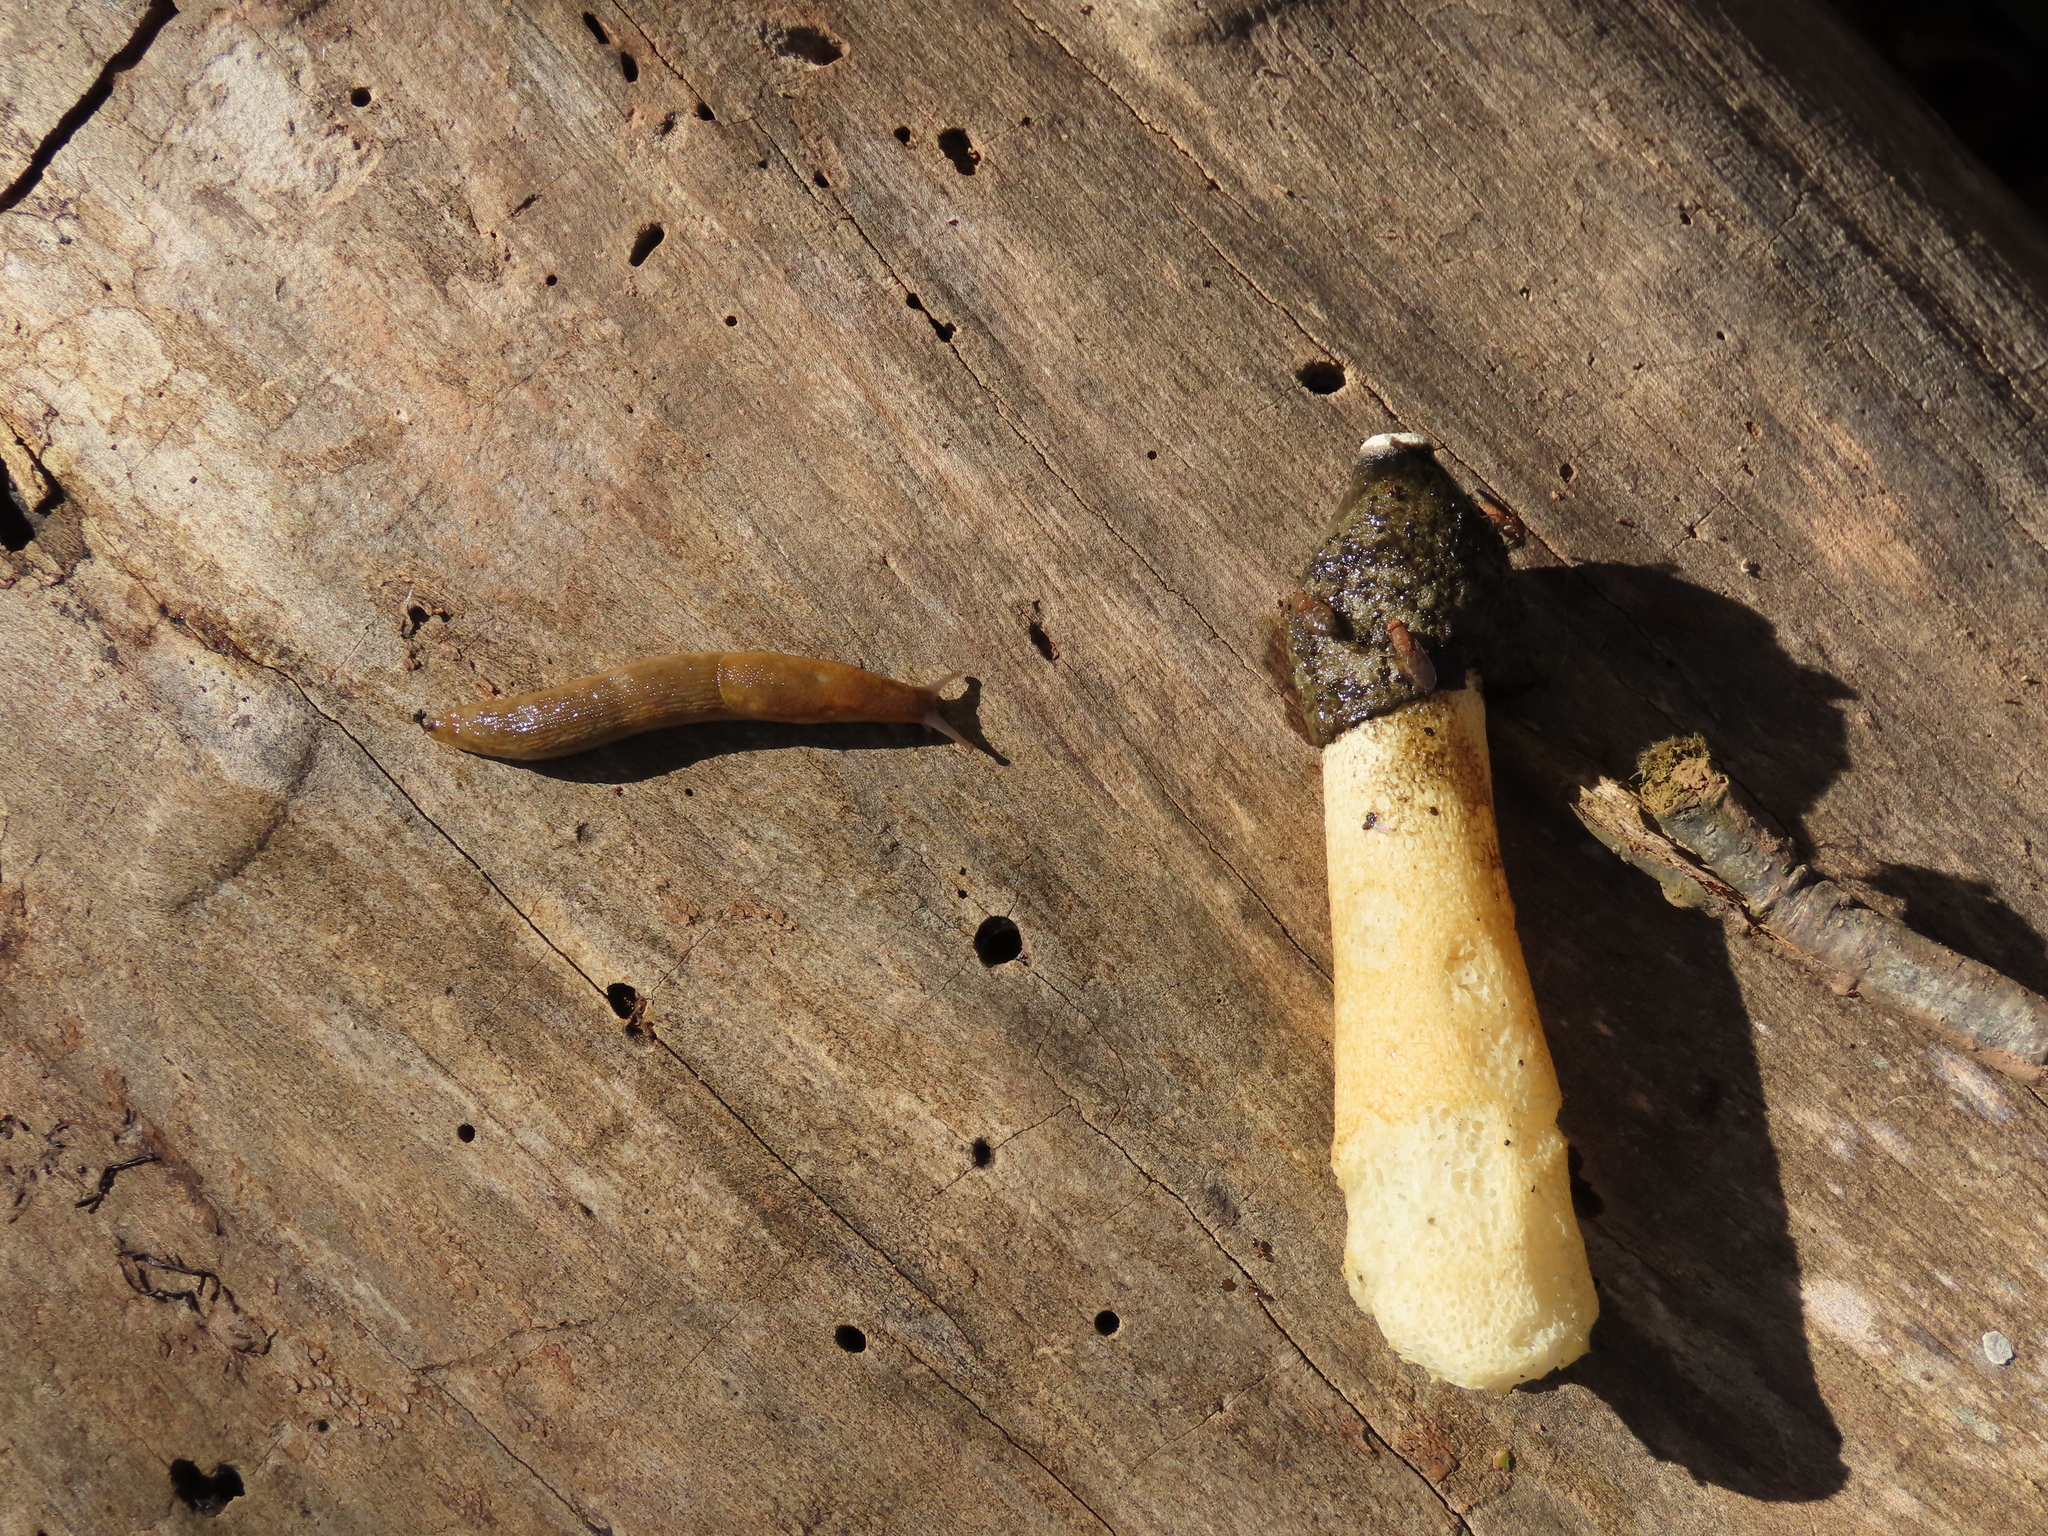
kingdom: Fungi
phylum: Basidiomycota
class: Agaricomycetes
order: Phallales
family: Phallaceae
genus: Phallus
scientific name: Phallus ravenelii
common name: Ravenel's stinkhorn
